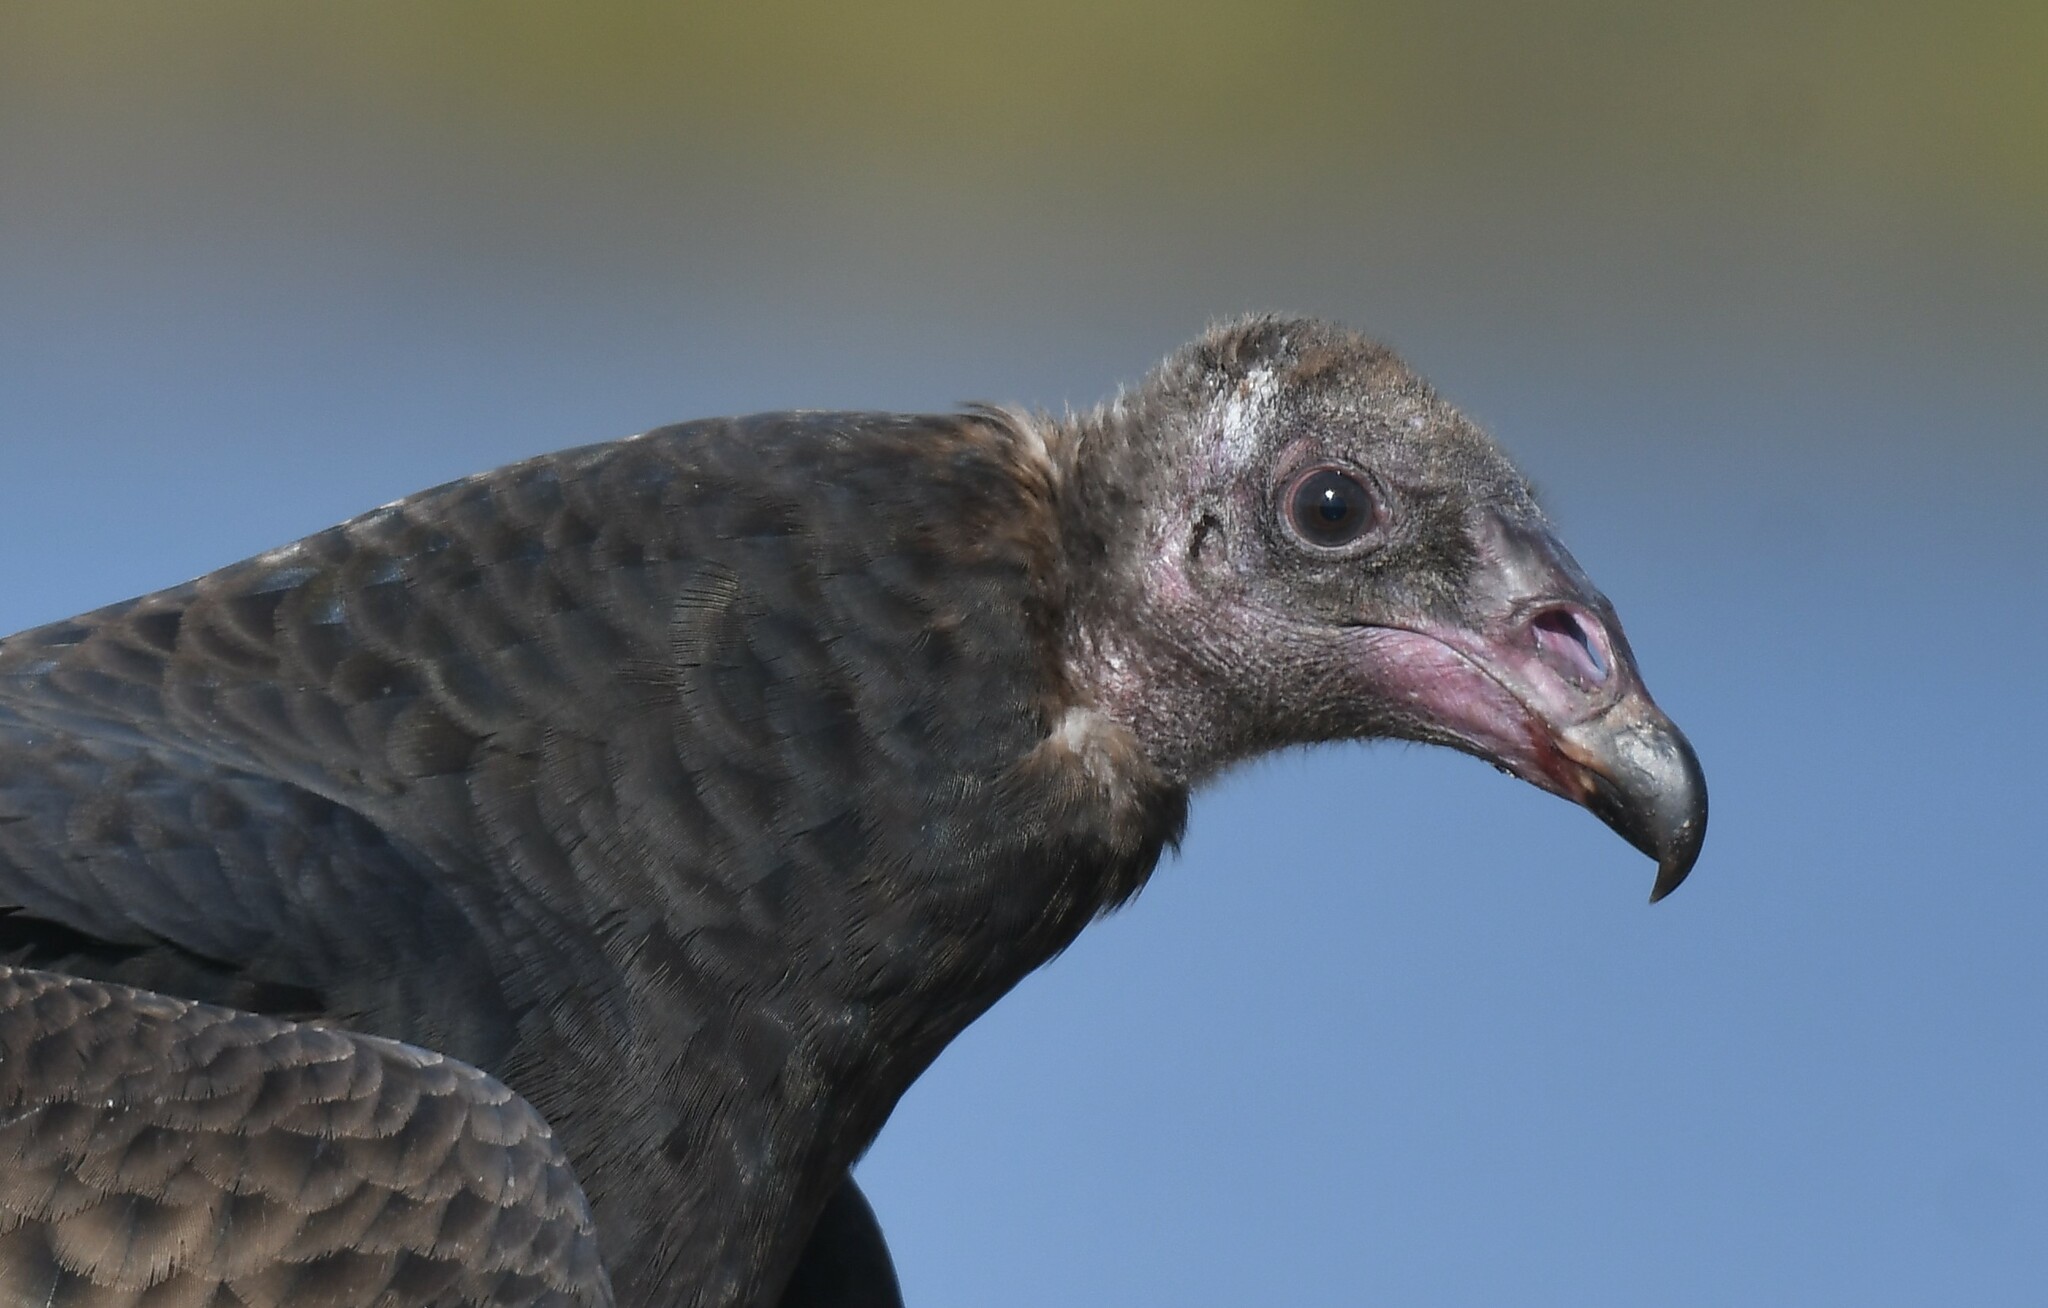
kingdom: Animalia
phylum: Chordata
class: Aves
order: Accipitriformes
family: Cathartidae
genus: Cathartes
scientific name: Cathartes aura
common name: Turkey vulture
